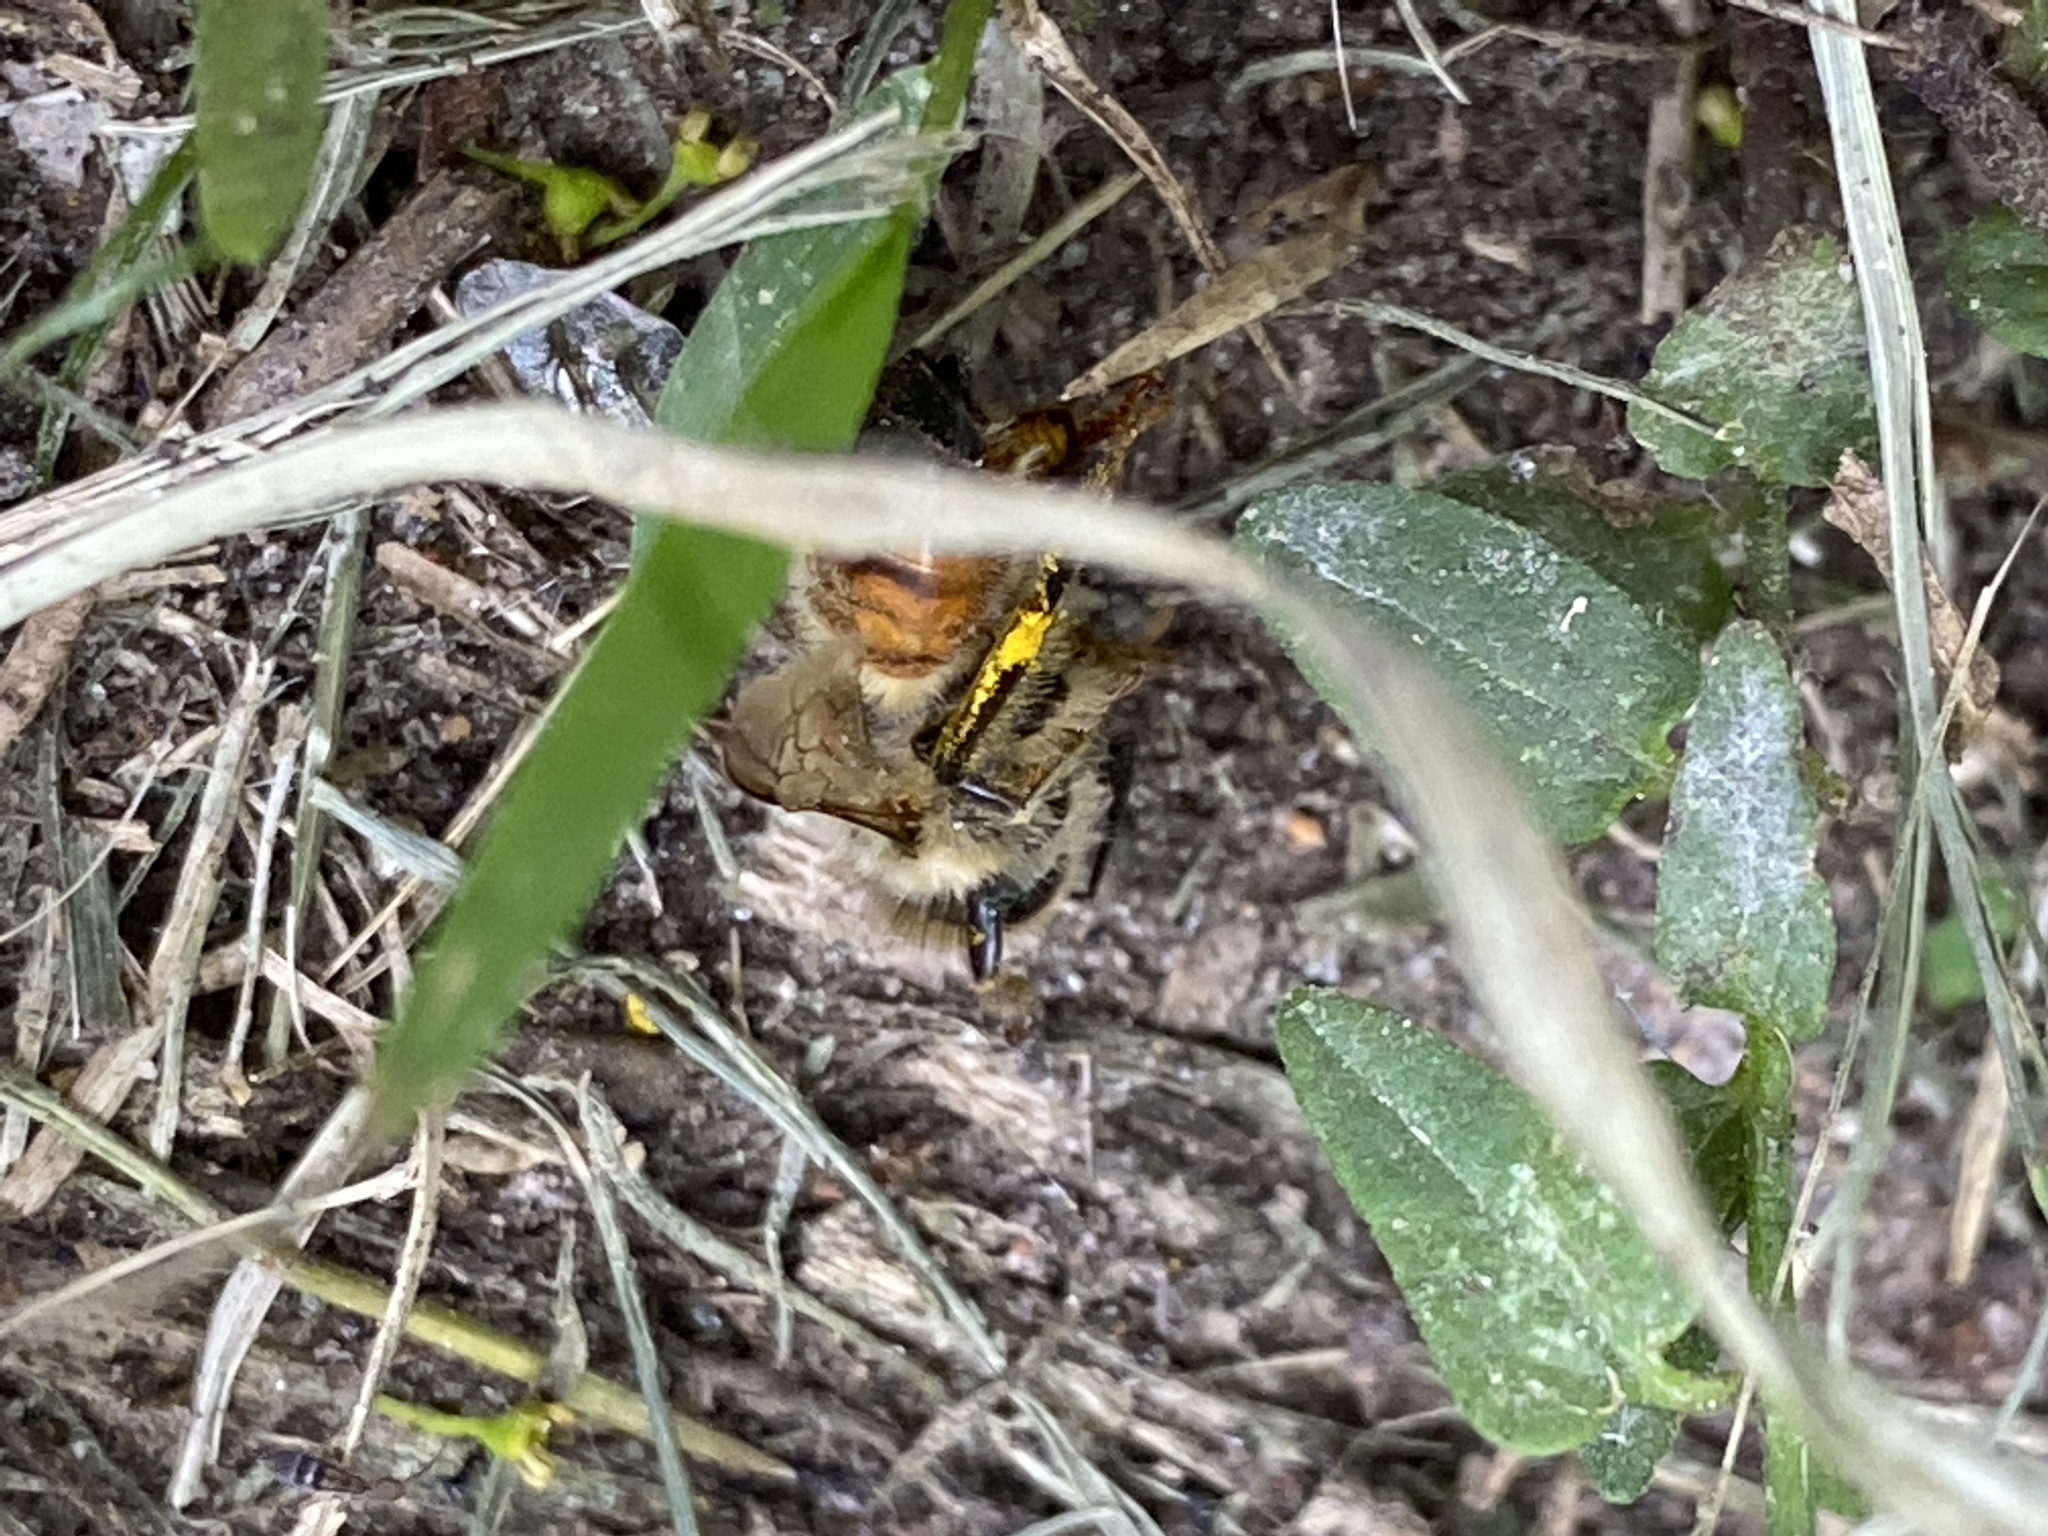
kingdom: Animalia
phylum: Arthropoda
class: Insecta
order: Hymenoptera
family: Apidae
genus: Apis
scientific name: Apis mellifera
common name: Honey bee
